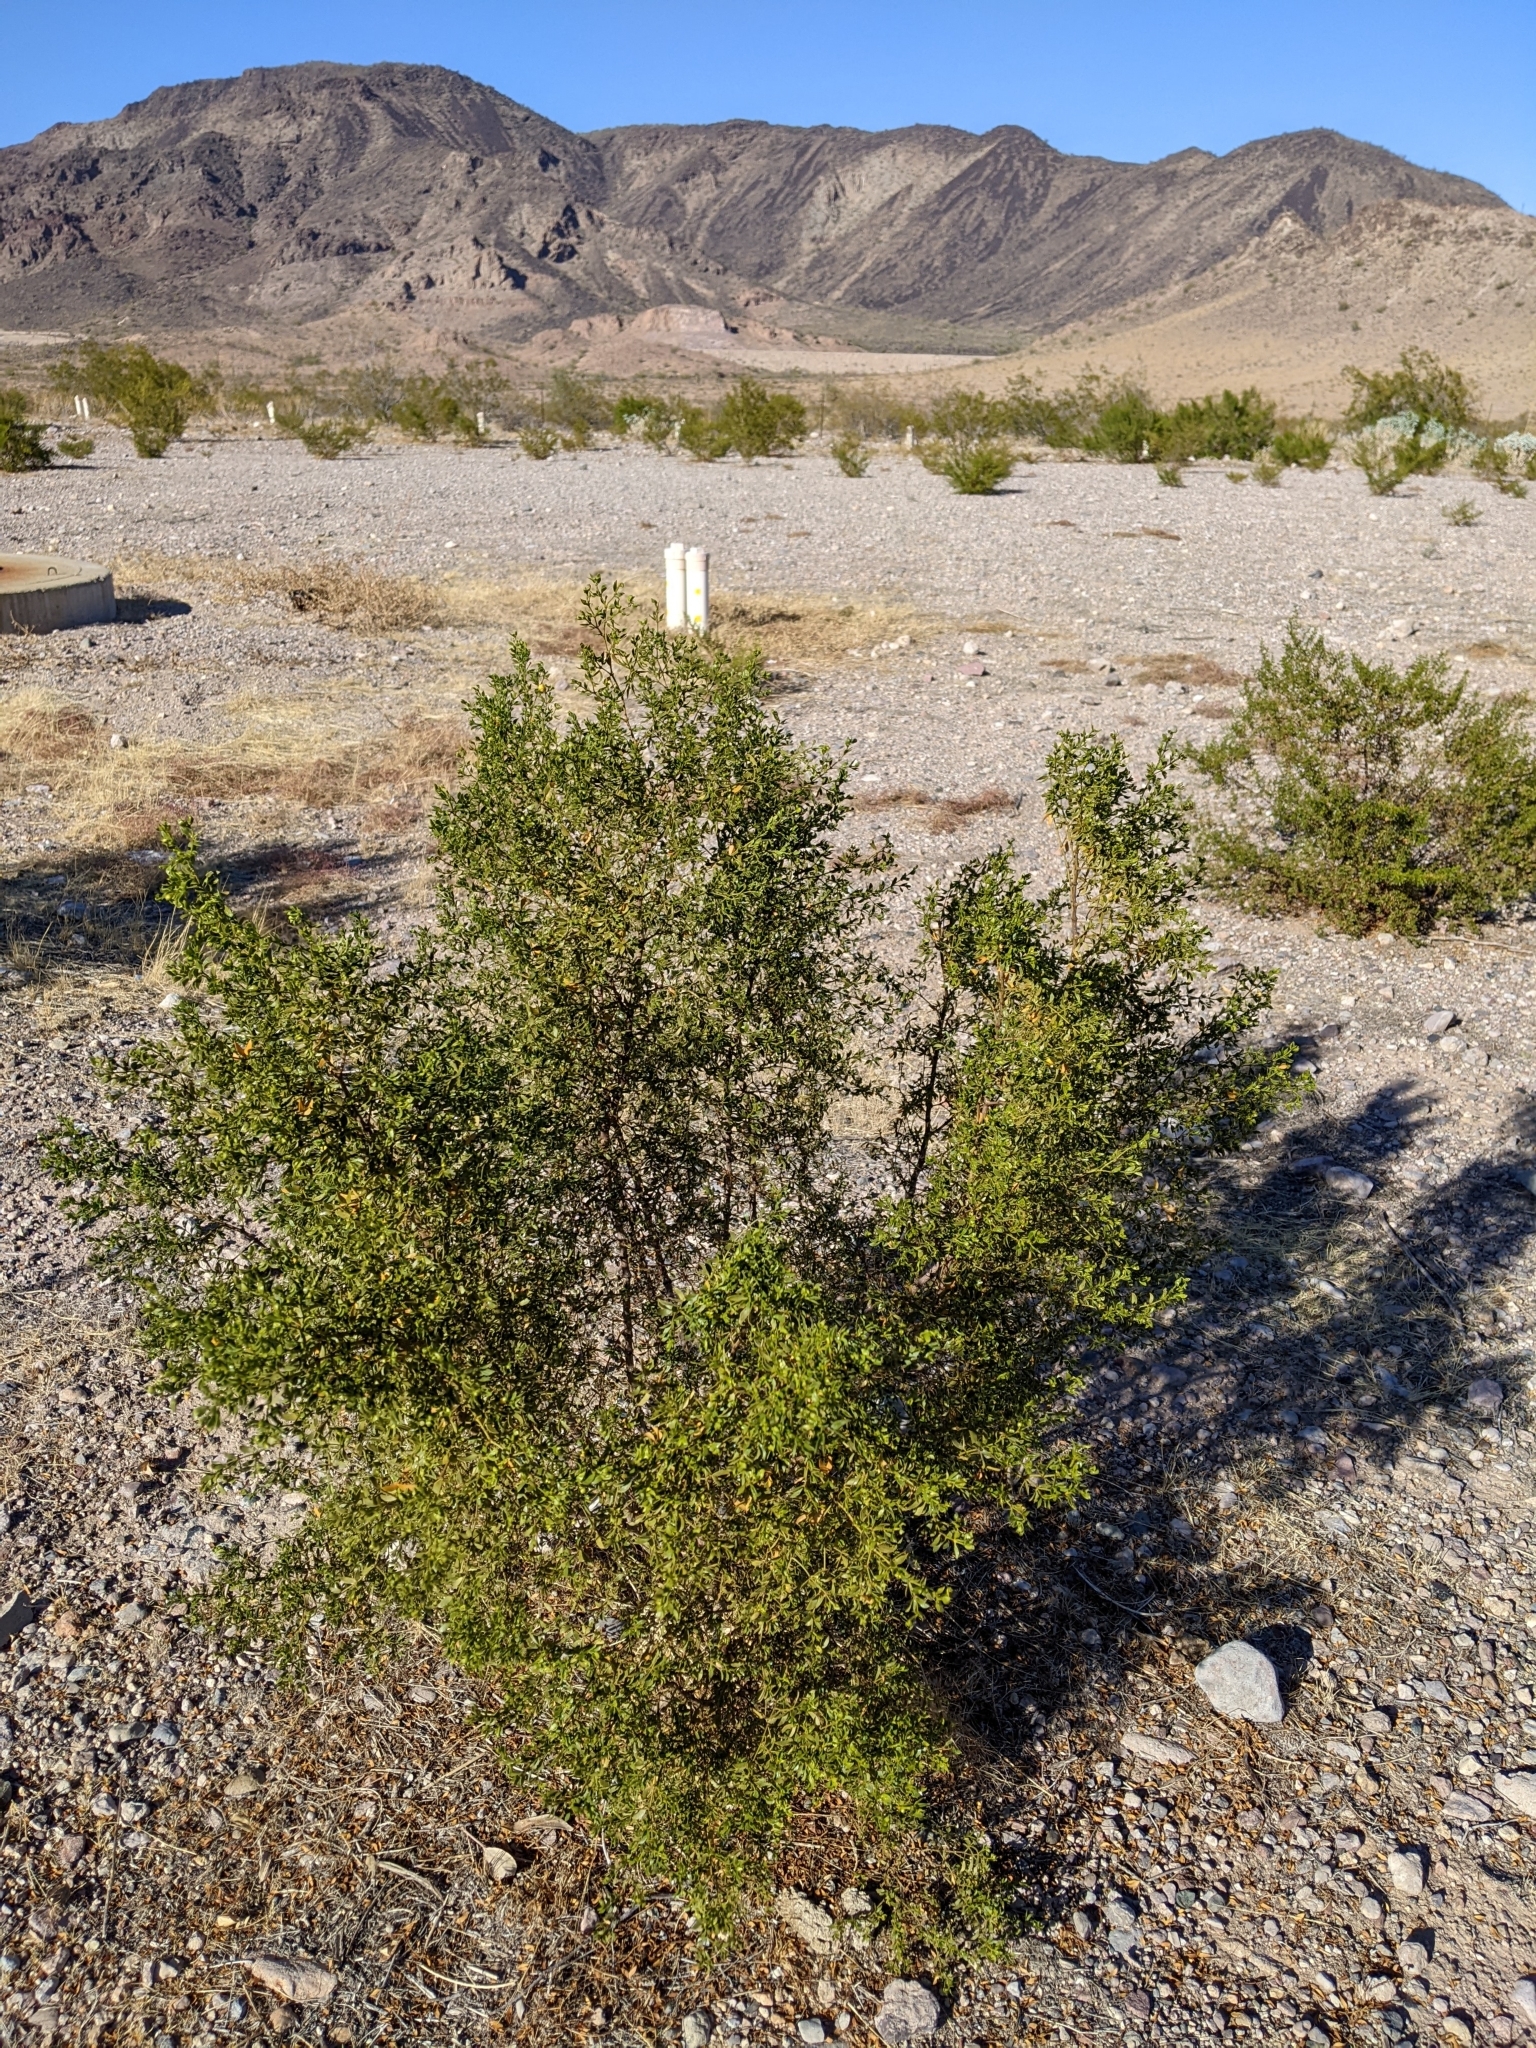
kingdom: Plantae
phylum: Tracheophyta
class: Magnoliopsida
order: Zygophyllales
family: Zygophyllaceae
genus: Larrea
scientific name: Larrea tridentata
